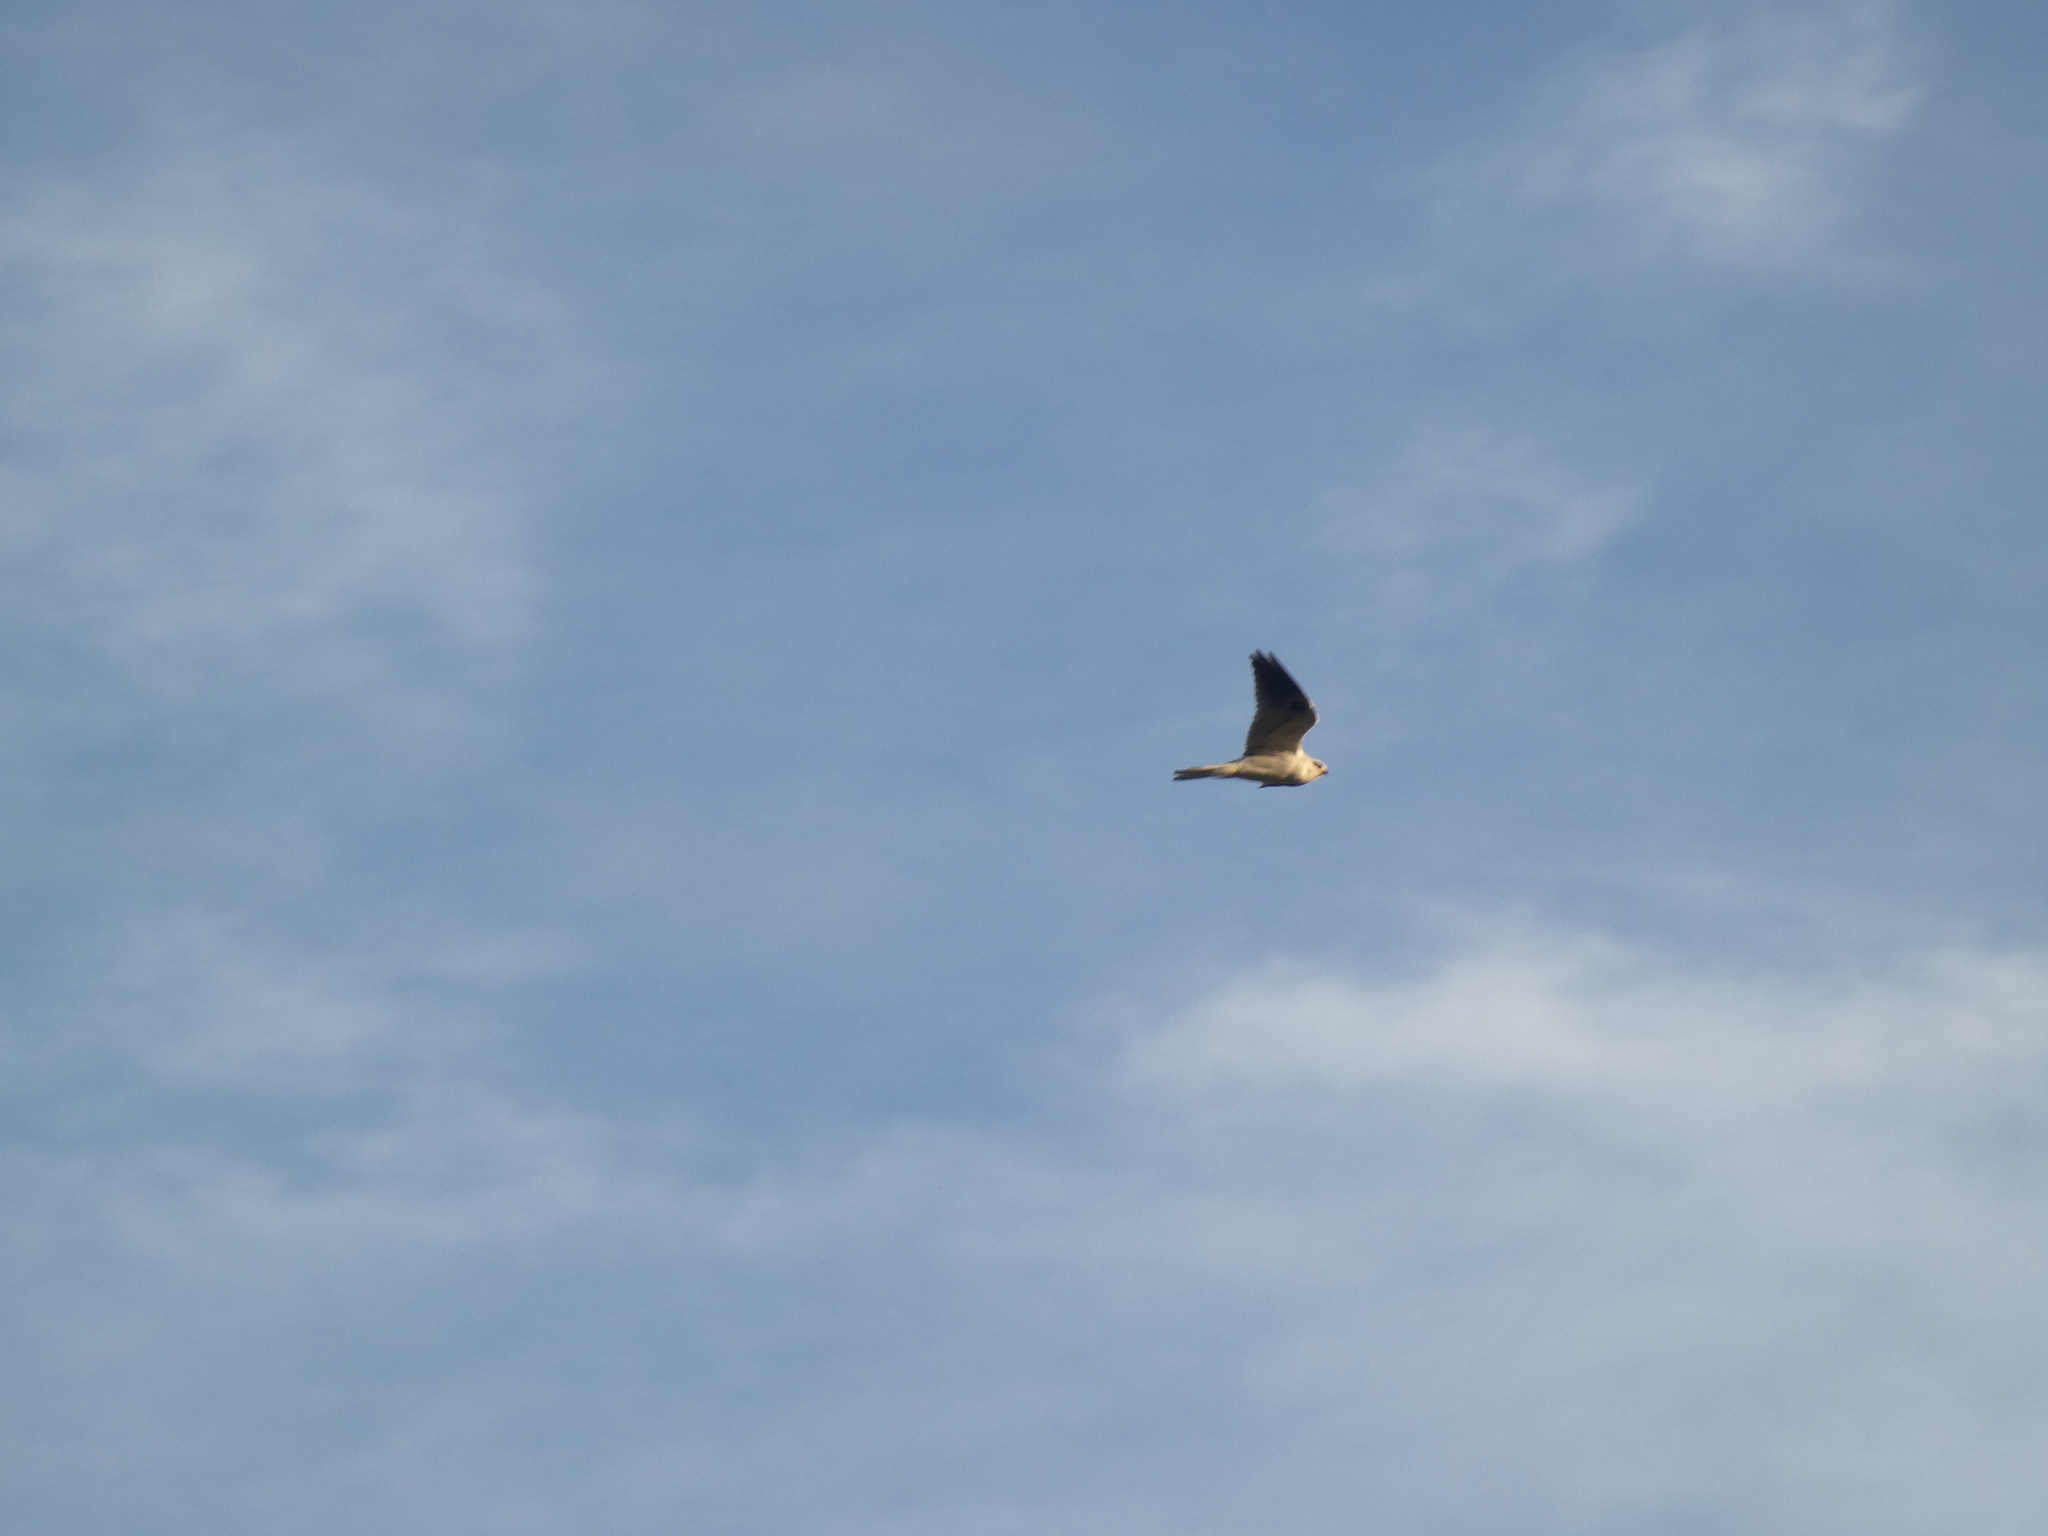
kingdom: Animalia
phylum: Chordata
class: Aves
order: Accipitriformes
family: Accipitridae
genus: Elanus
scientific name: Elanus leucurus
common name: White-tailed kite
